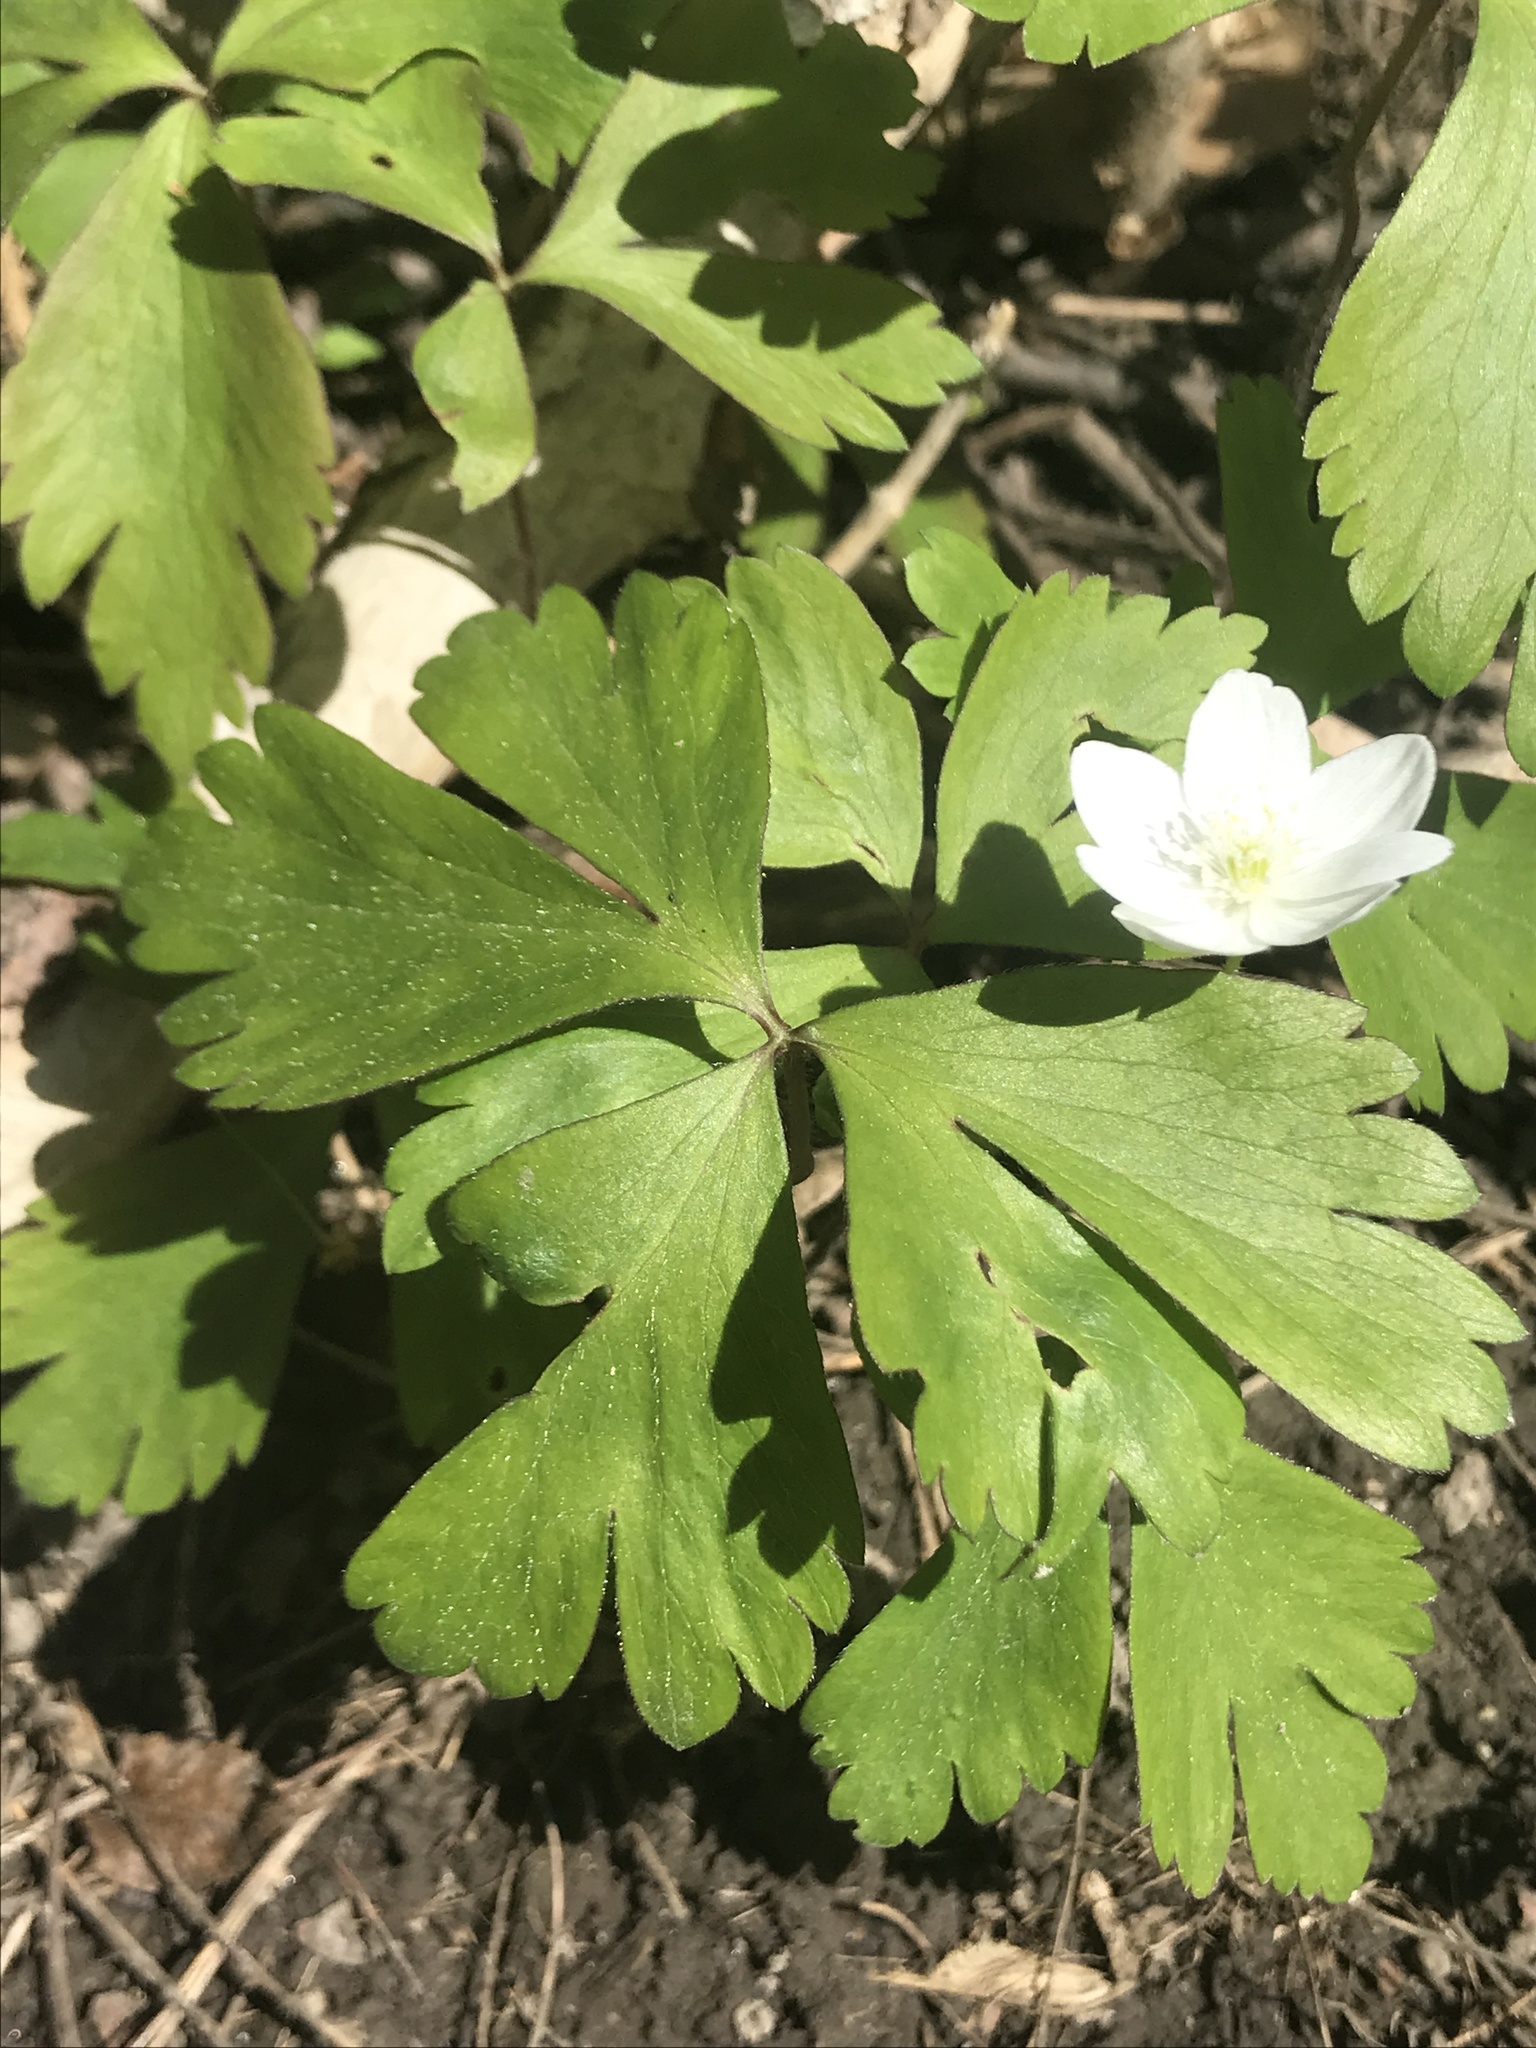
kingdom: Plantae
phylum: Tracheophyta
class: Magnoliopsida
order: Ranunculales
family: Ranunculaceae
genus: Anemone
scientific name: Anemone quinquefolia
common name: Wood anemone
